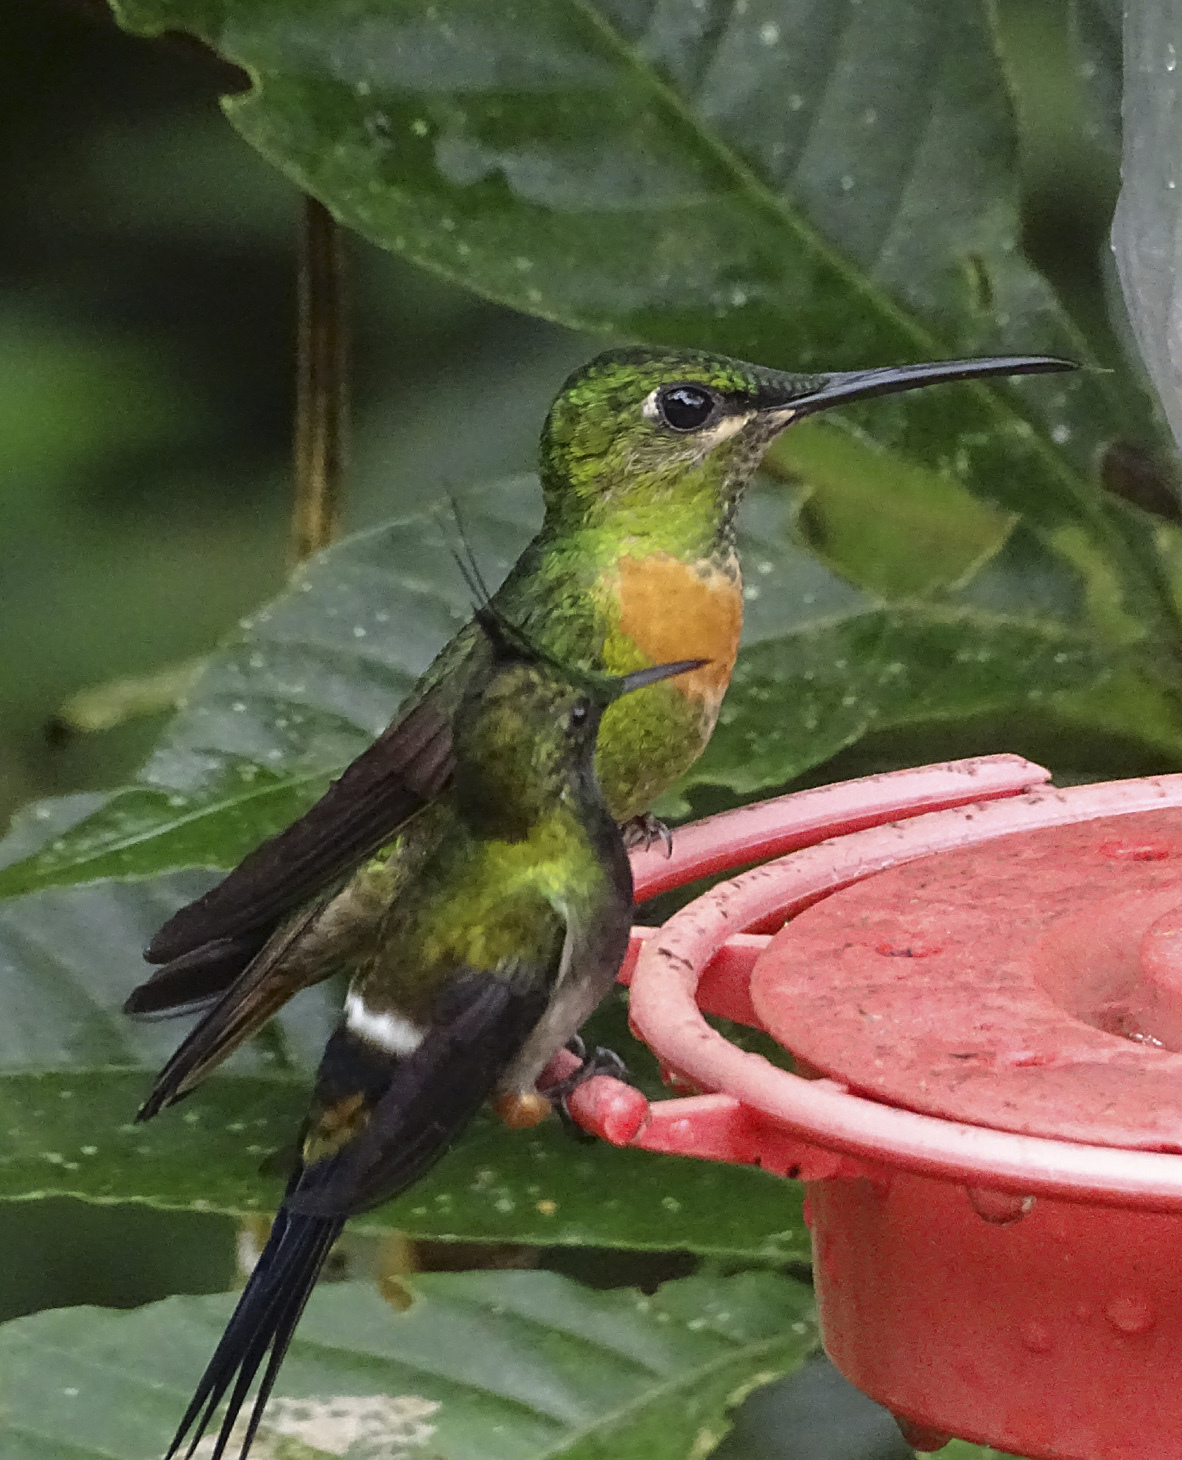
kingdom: Animalia
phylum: Chordata
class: Aves
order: Apodiformes
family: Trochilidae
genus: Heliodoxa
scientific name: Heliodoxa aurescens
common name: Gould's jewelfront
